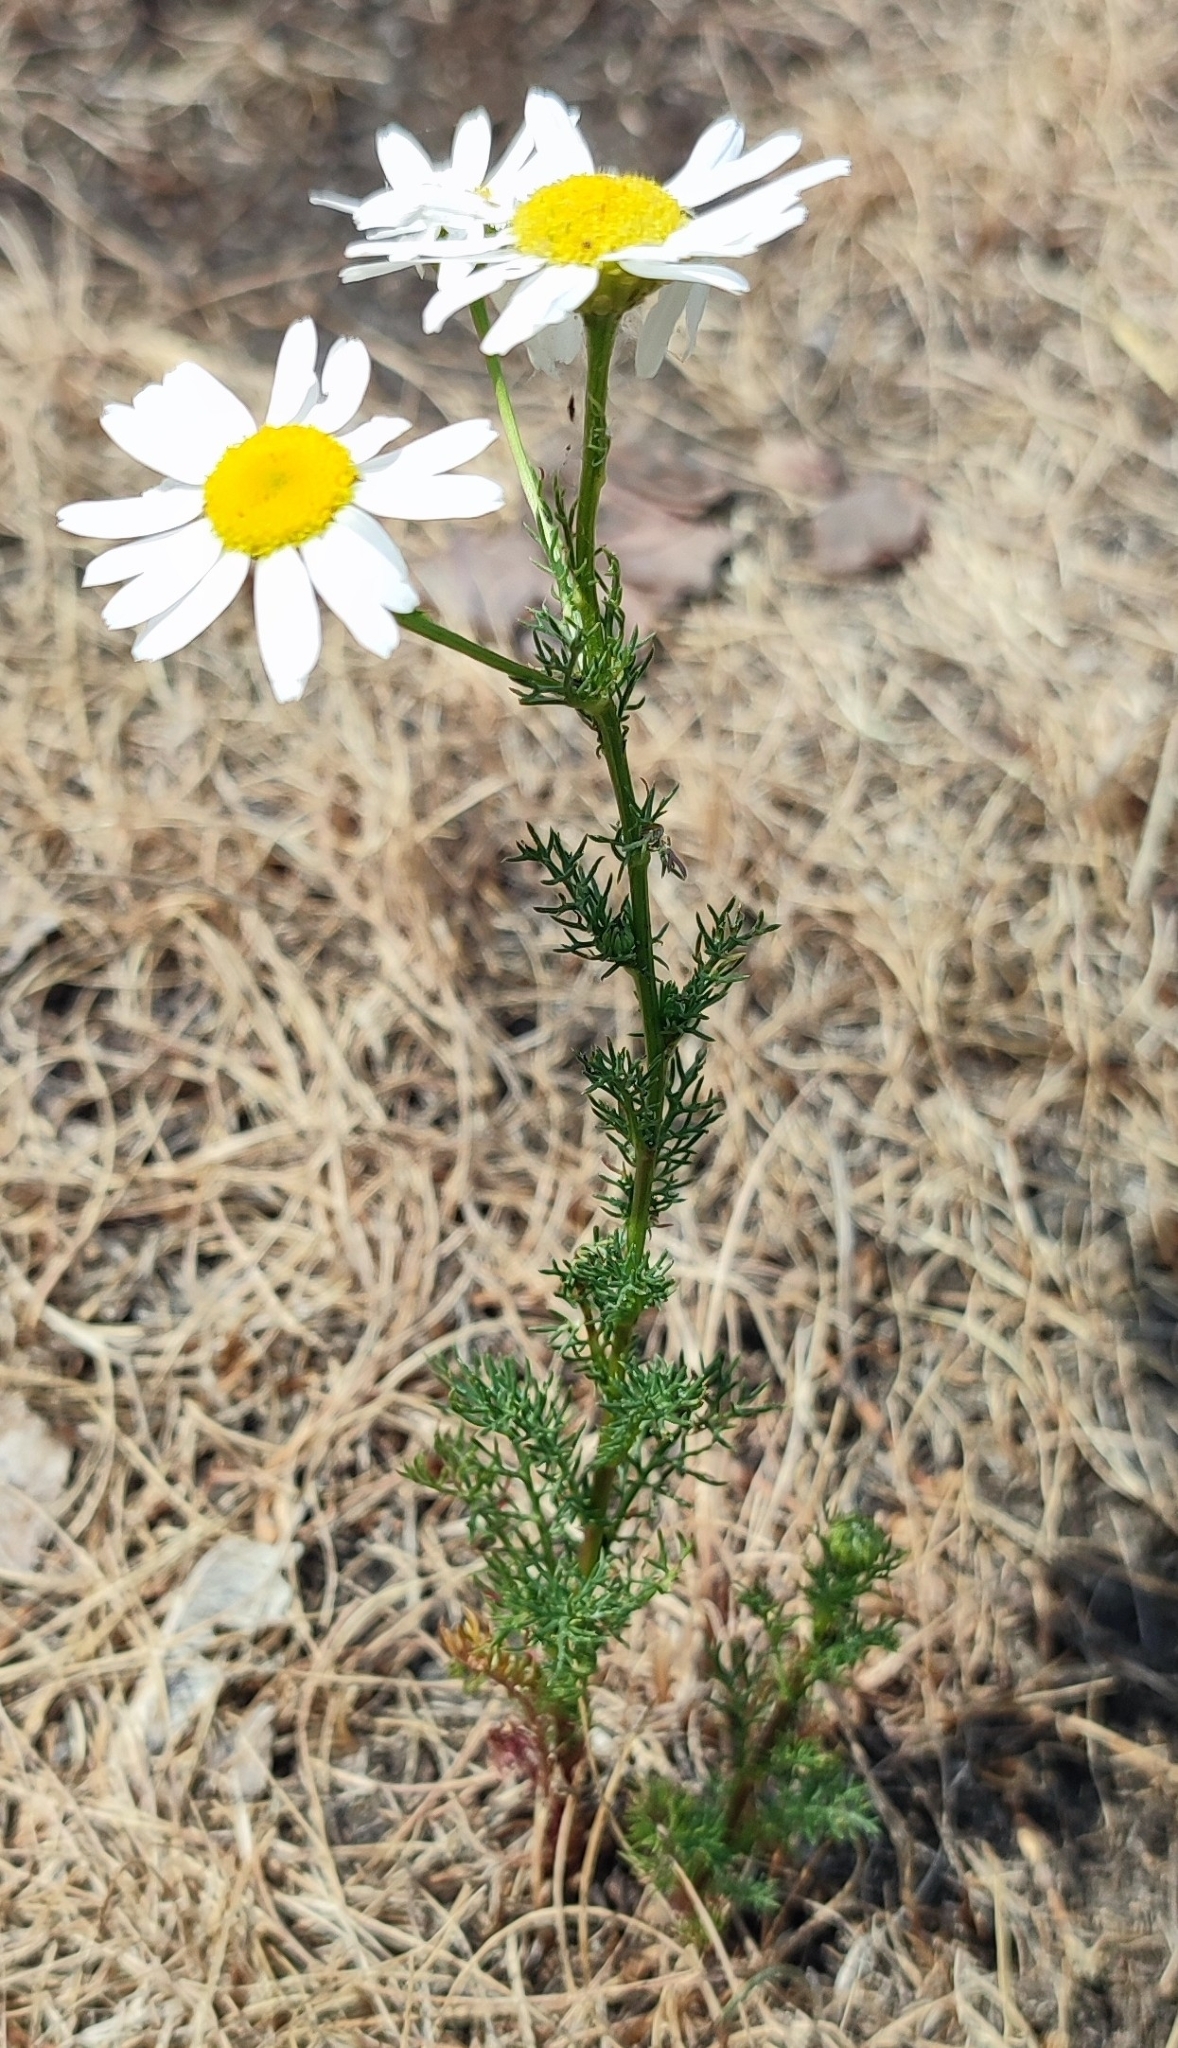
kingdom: Plantae
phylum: Tracheophyta
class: Magnoliopsida
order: Asterales
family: Asteraceae
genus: Tripleurospermum
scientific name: Tripleurospermum inodorum
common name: Scentless mayweed
